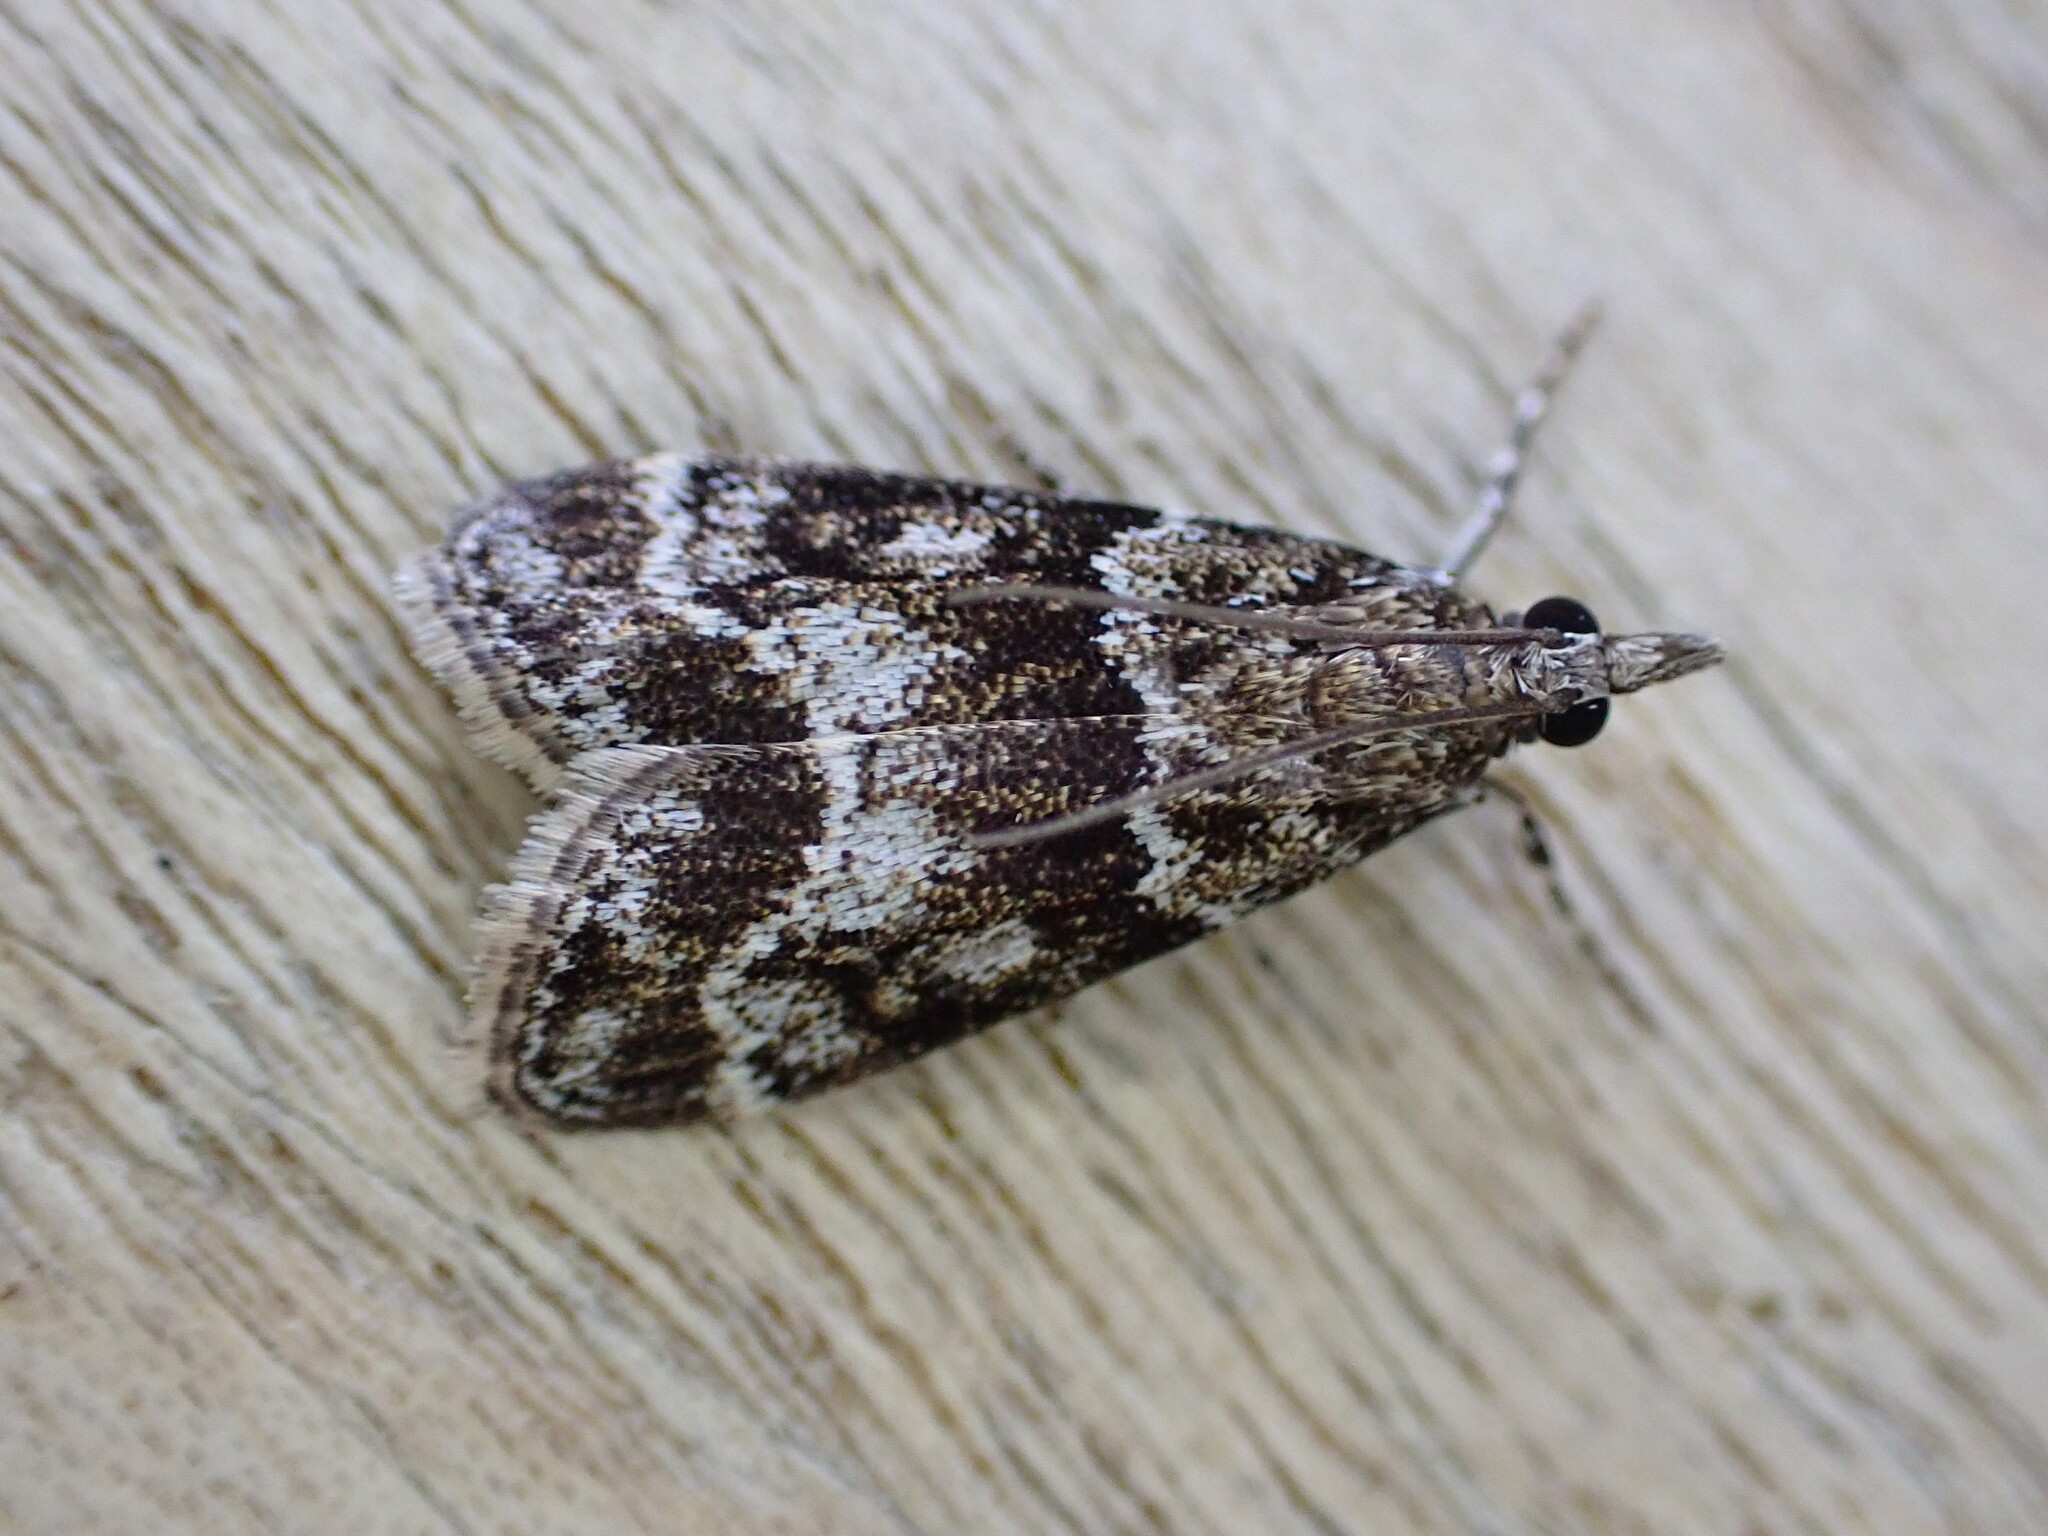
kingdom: Animalia
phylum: Arthropoda
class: Insecta
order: Lepidoptera
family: Crambidae
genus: Eudonia
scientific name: Eudonia mercurella
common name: Small grey
